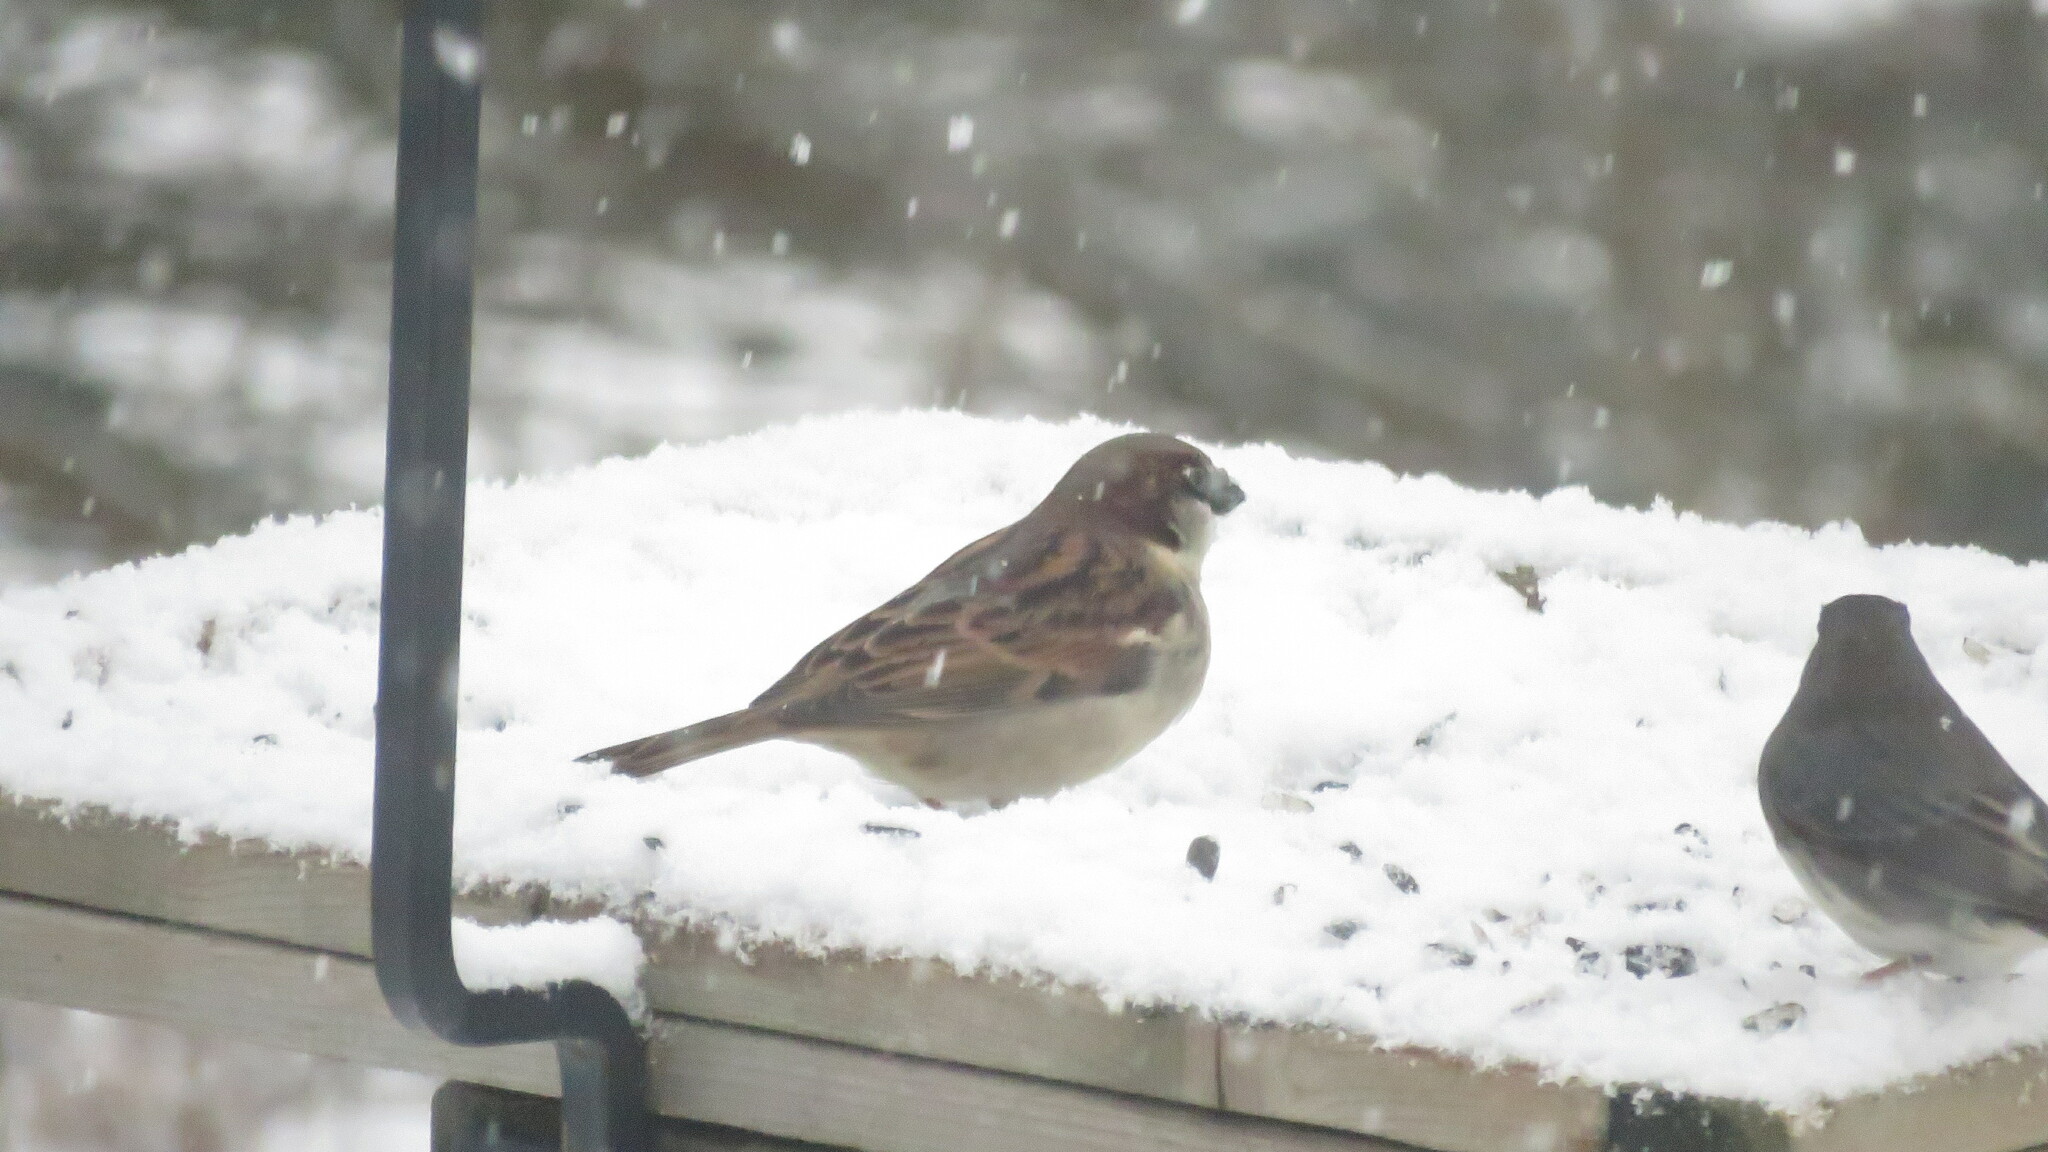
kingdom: Animalia
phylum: Chordata
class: Aves
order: Passeriformes
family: Passeridae
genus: Passer
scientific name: Passer domesticus
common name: House sparrow
